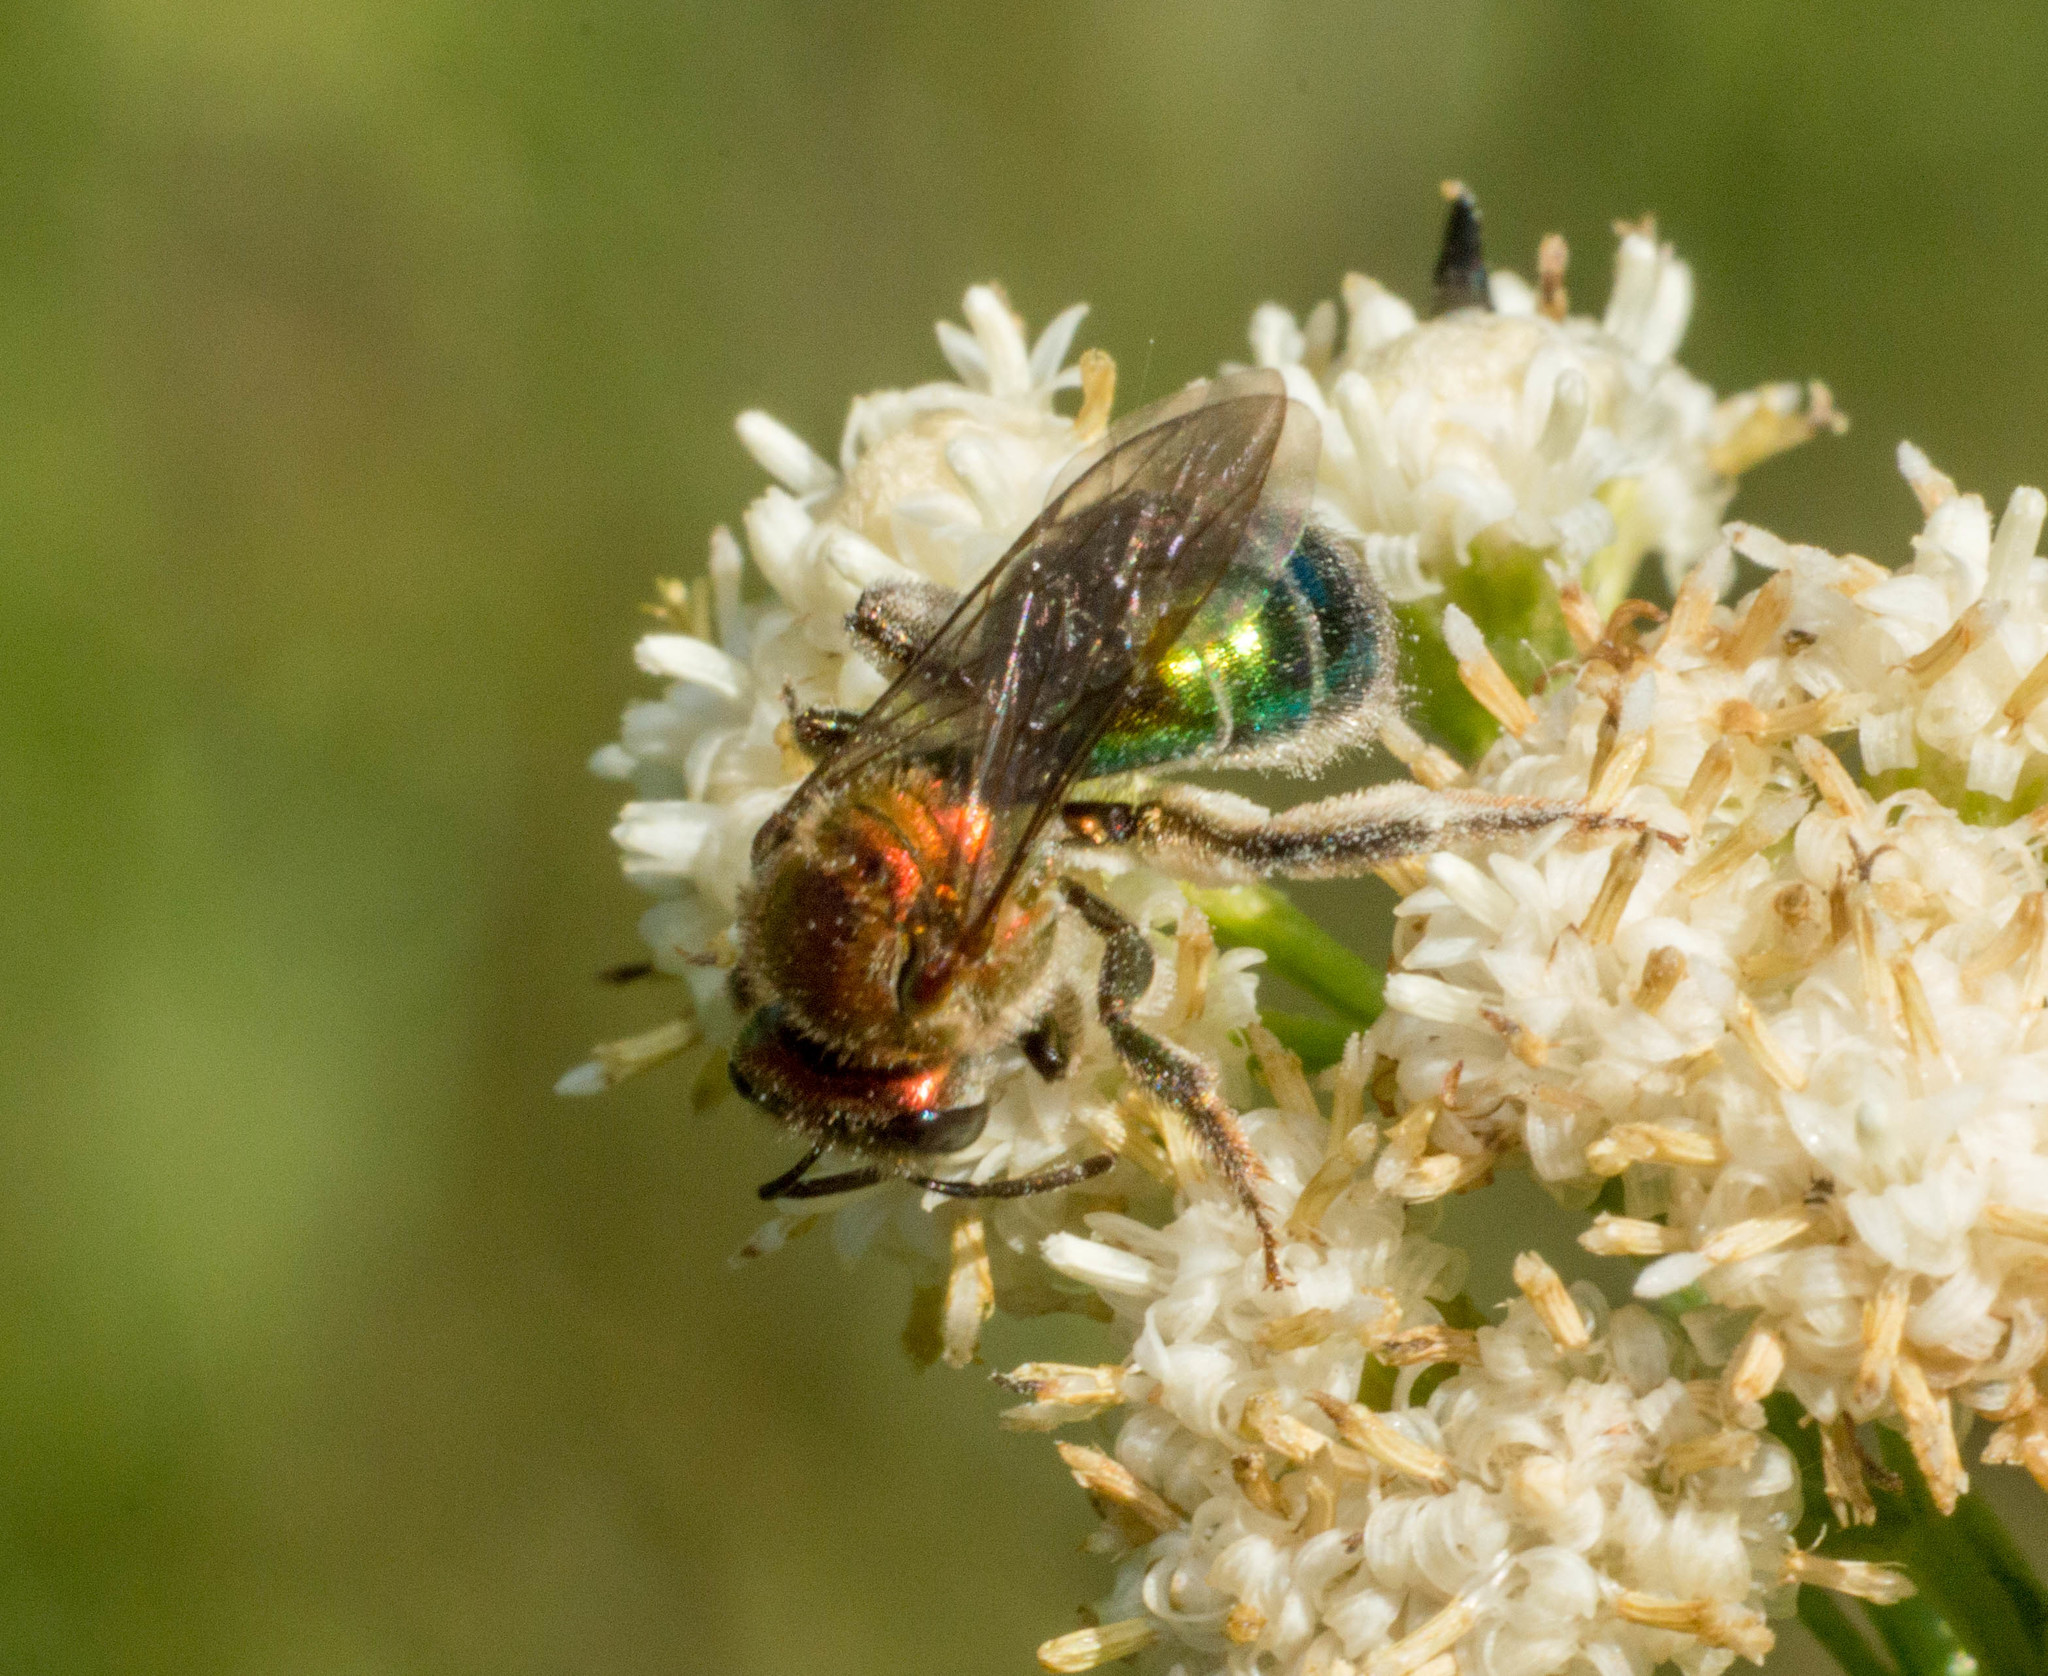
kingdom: Animalia
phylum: Arthropoda
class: Insecta
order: Hymenoptera
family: Halictidae
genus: Augochloropsis
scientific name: Augochloropsis tupacamaru
